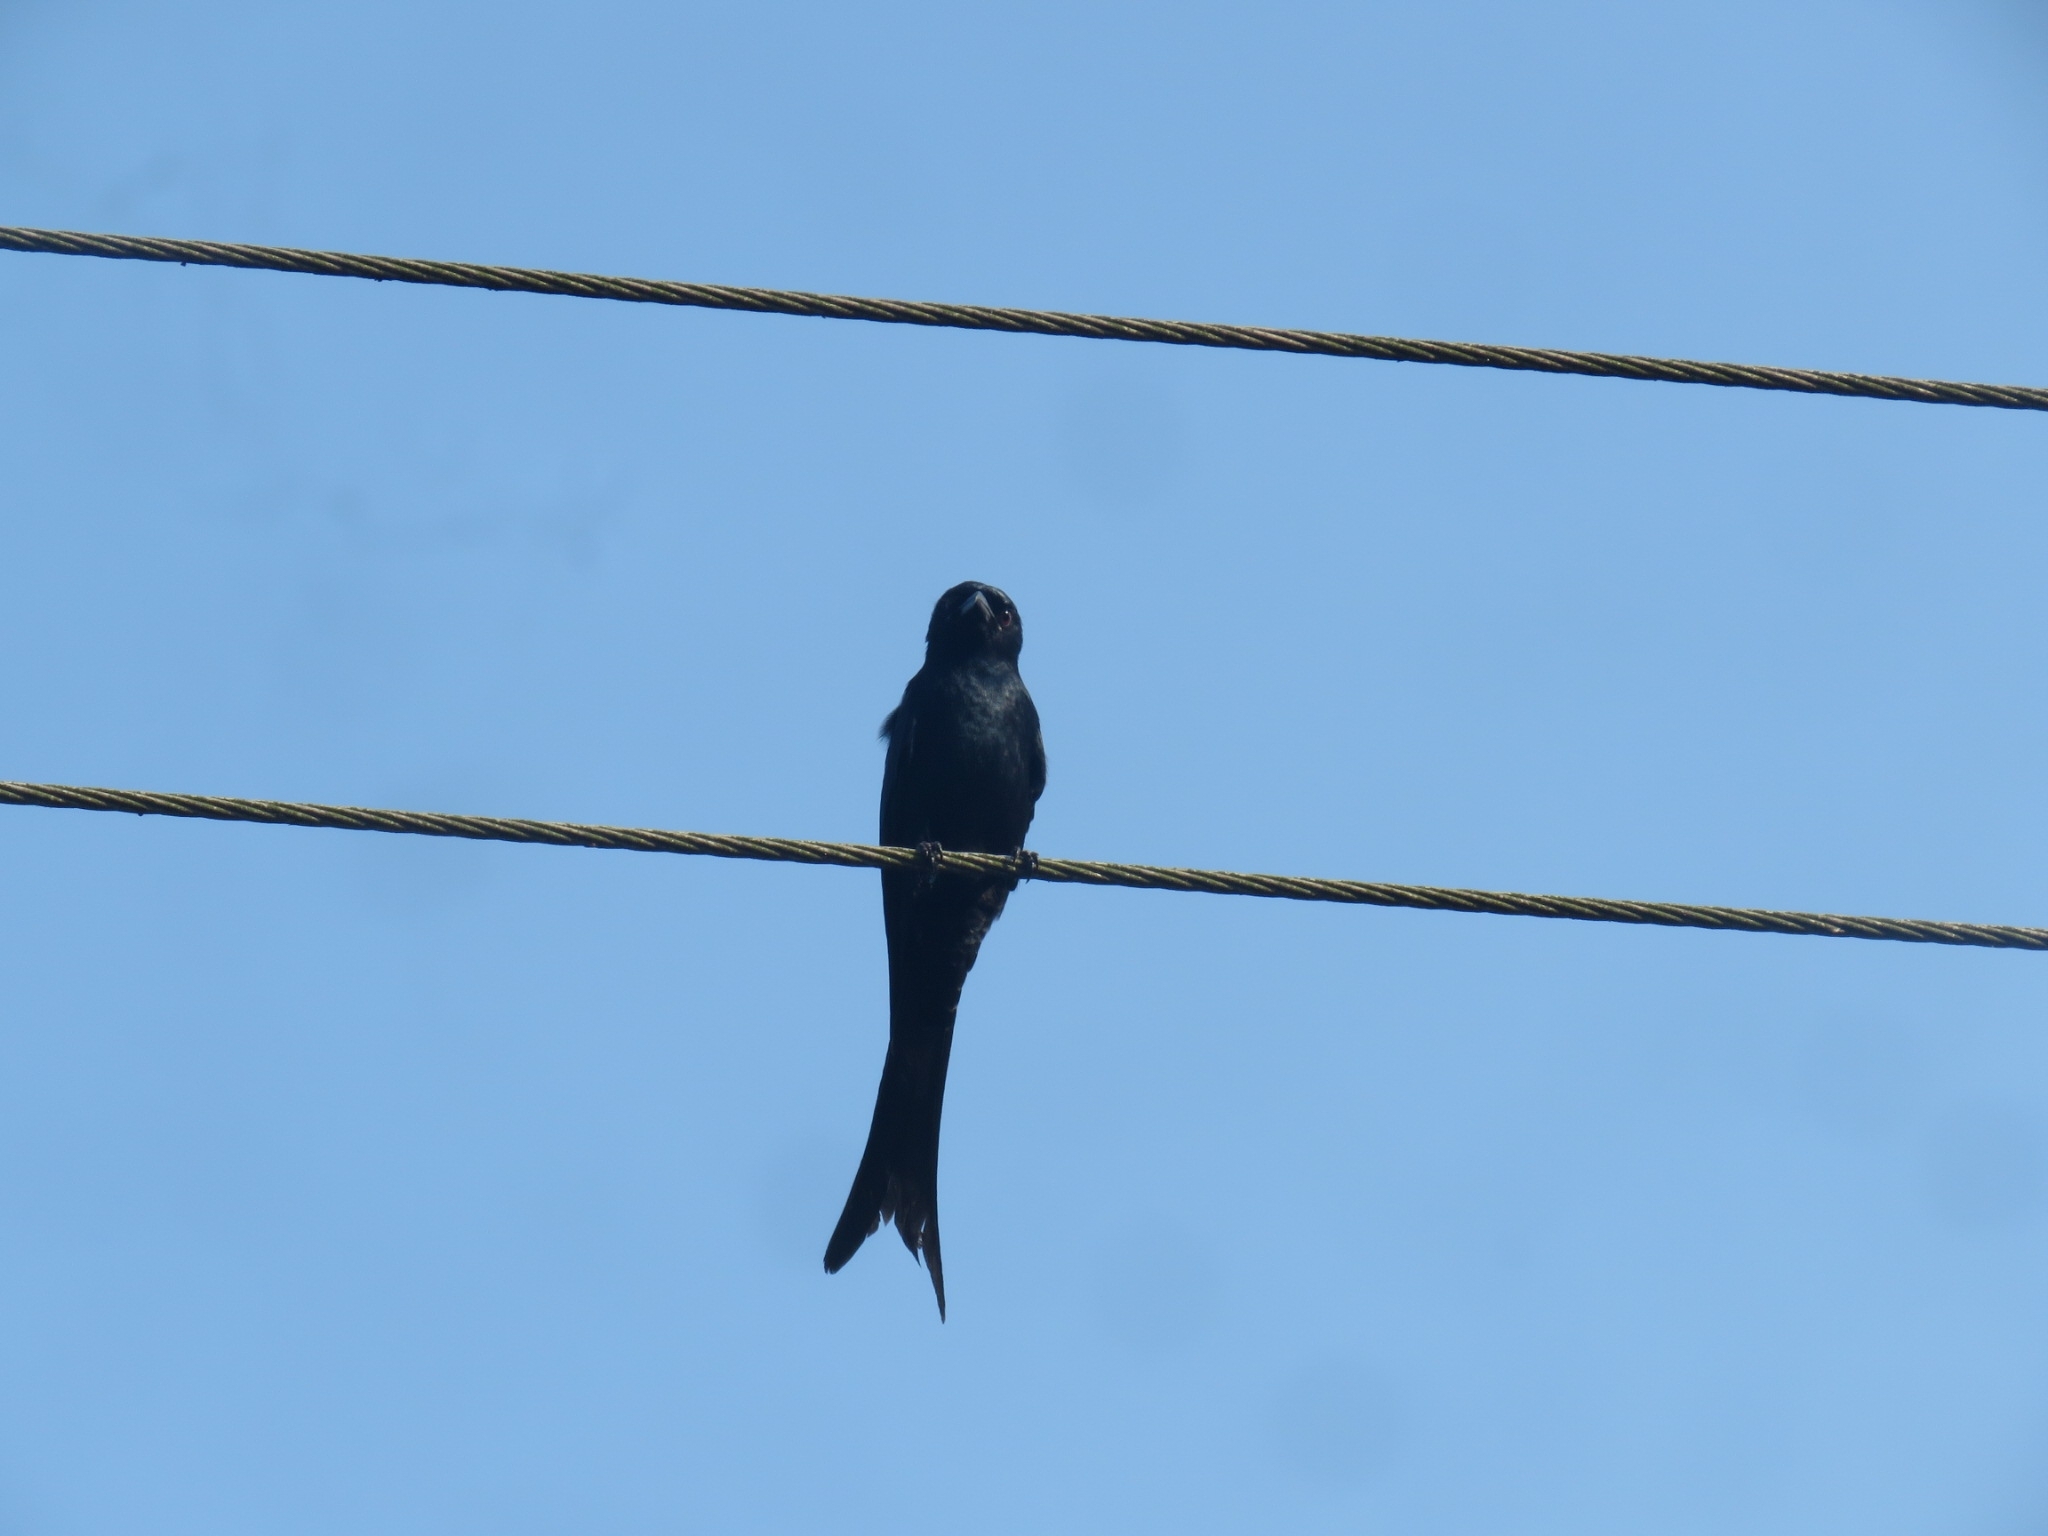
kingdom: Animalia
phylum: Chordata
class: Aves
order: Passeriformes
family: Dicruridae
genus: Dicrurus
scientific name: Dicrurus macrocercus
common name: Black drongo
